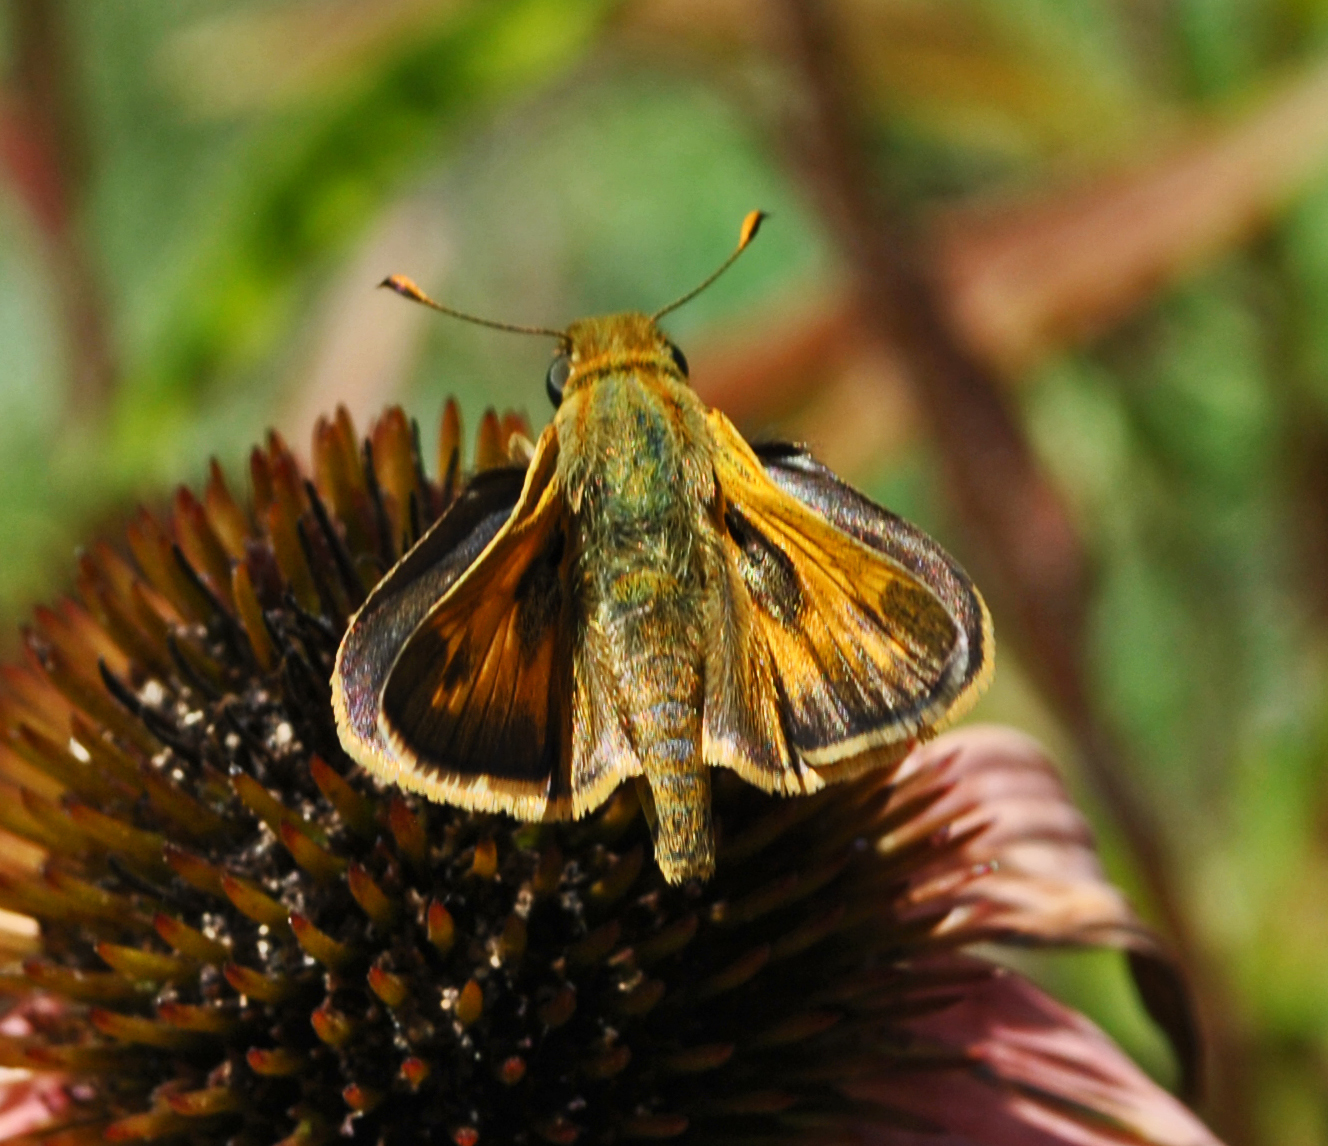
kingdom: Animalia
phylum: Arthropoda
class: Insecta
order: Lepidoptera
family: Hesperiidae
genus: Atalopedes
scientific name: Atalopedes
